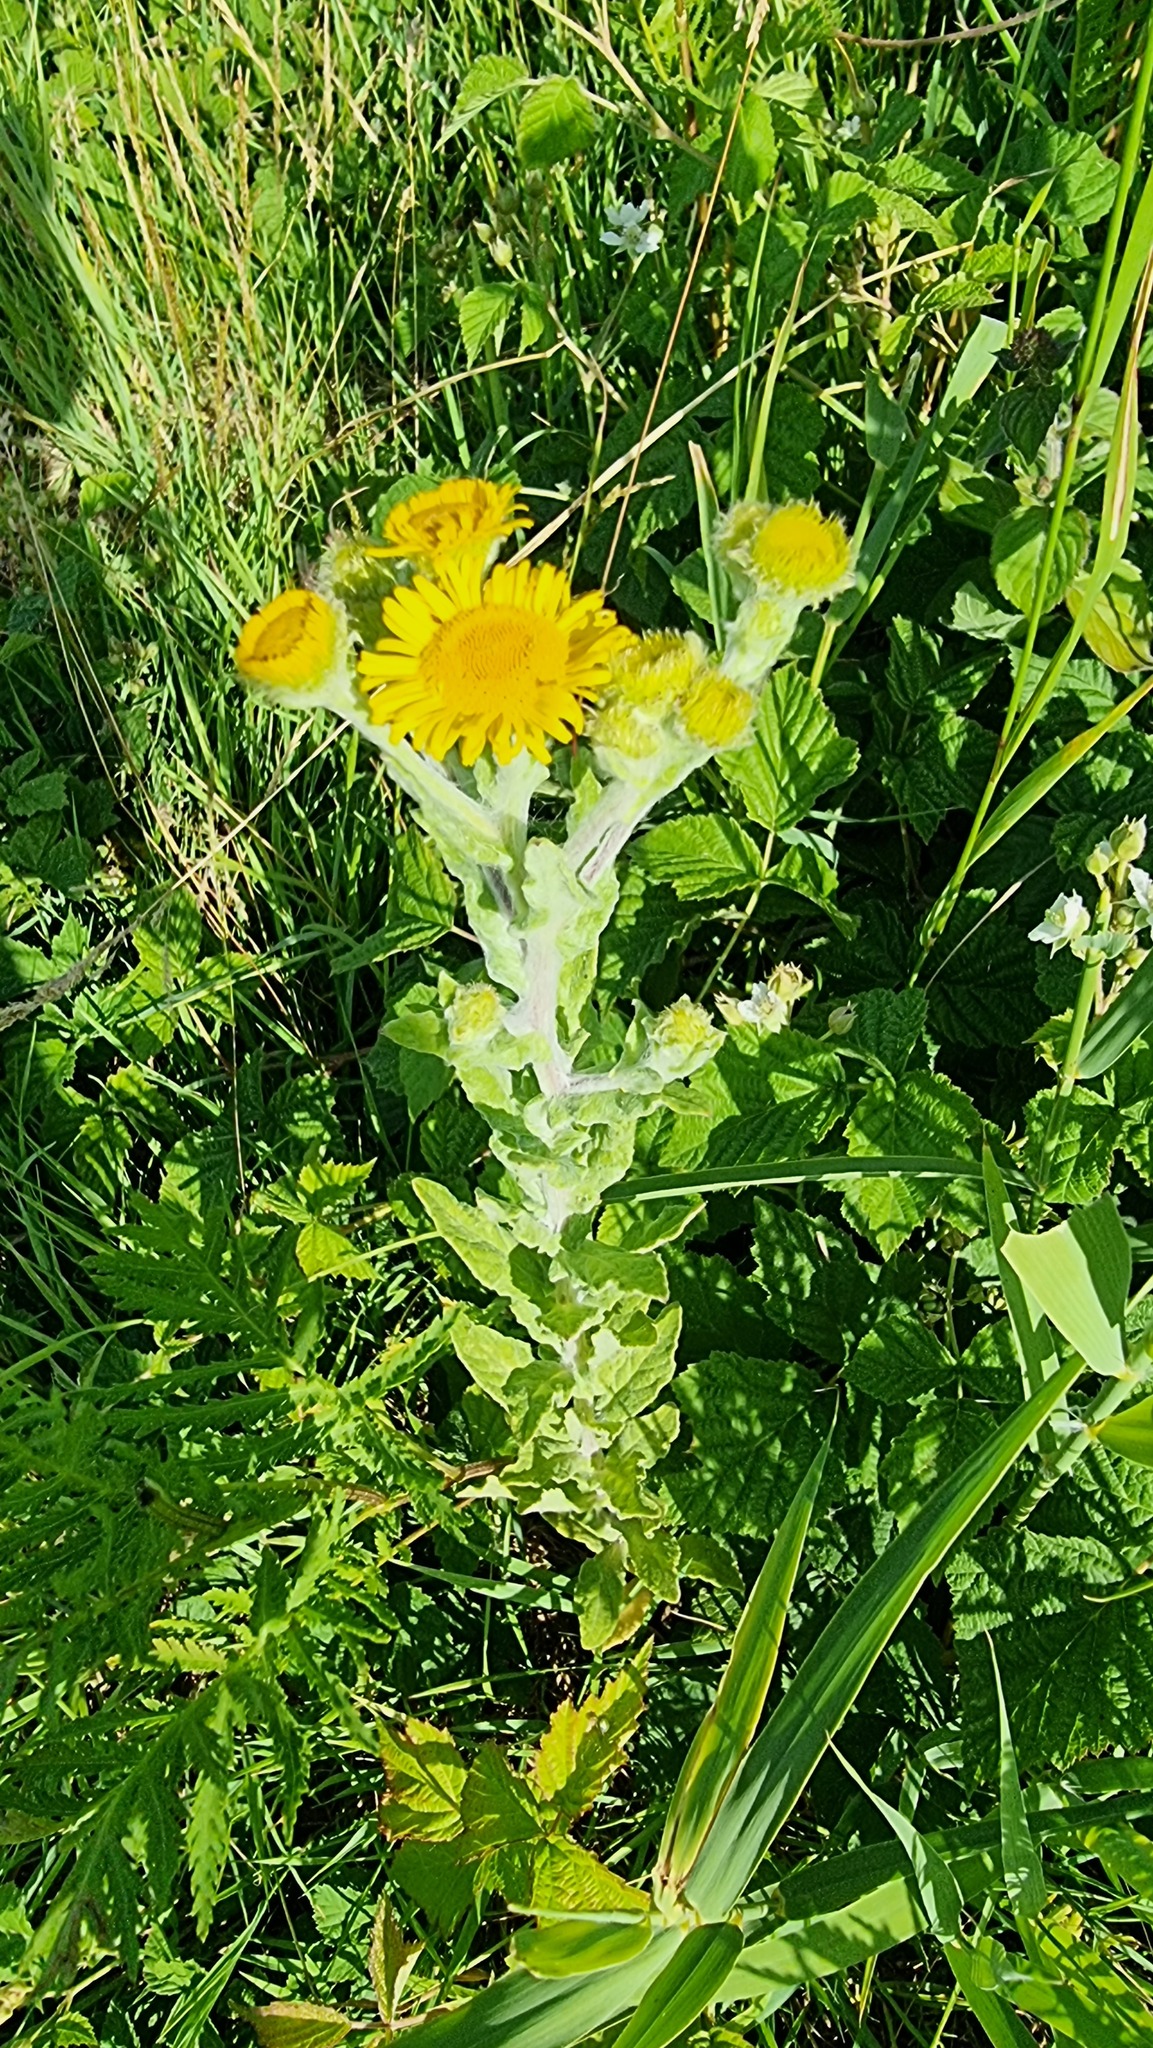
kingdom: Plantae
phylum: Tracheophyta
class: Magnoliopsida
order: Asterales
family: Asteraceae
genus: Pulicaria
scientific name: Pulicaria dysenterica
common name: Common fleabane
